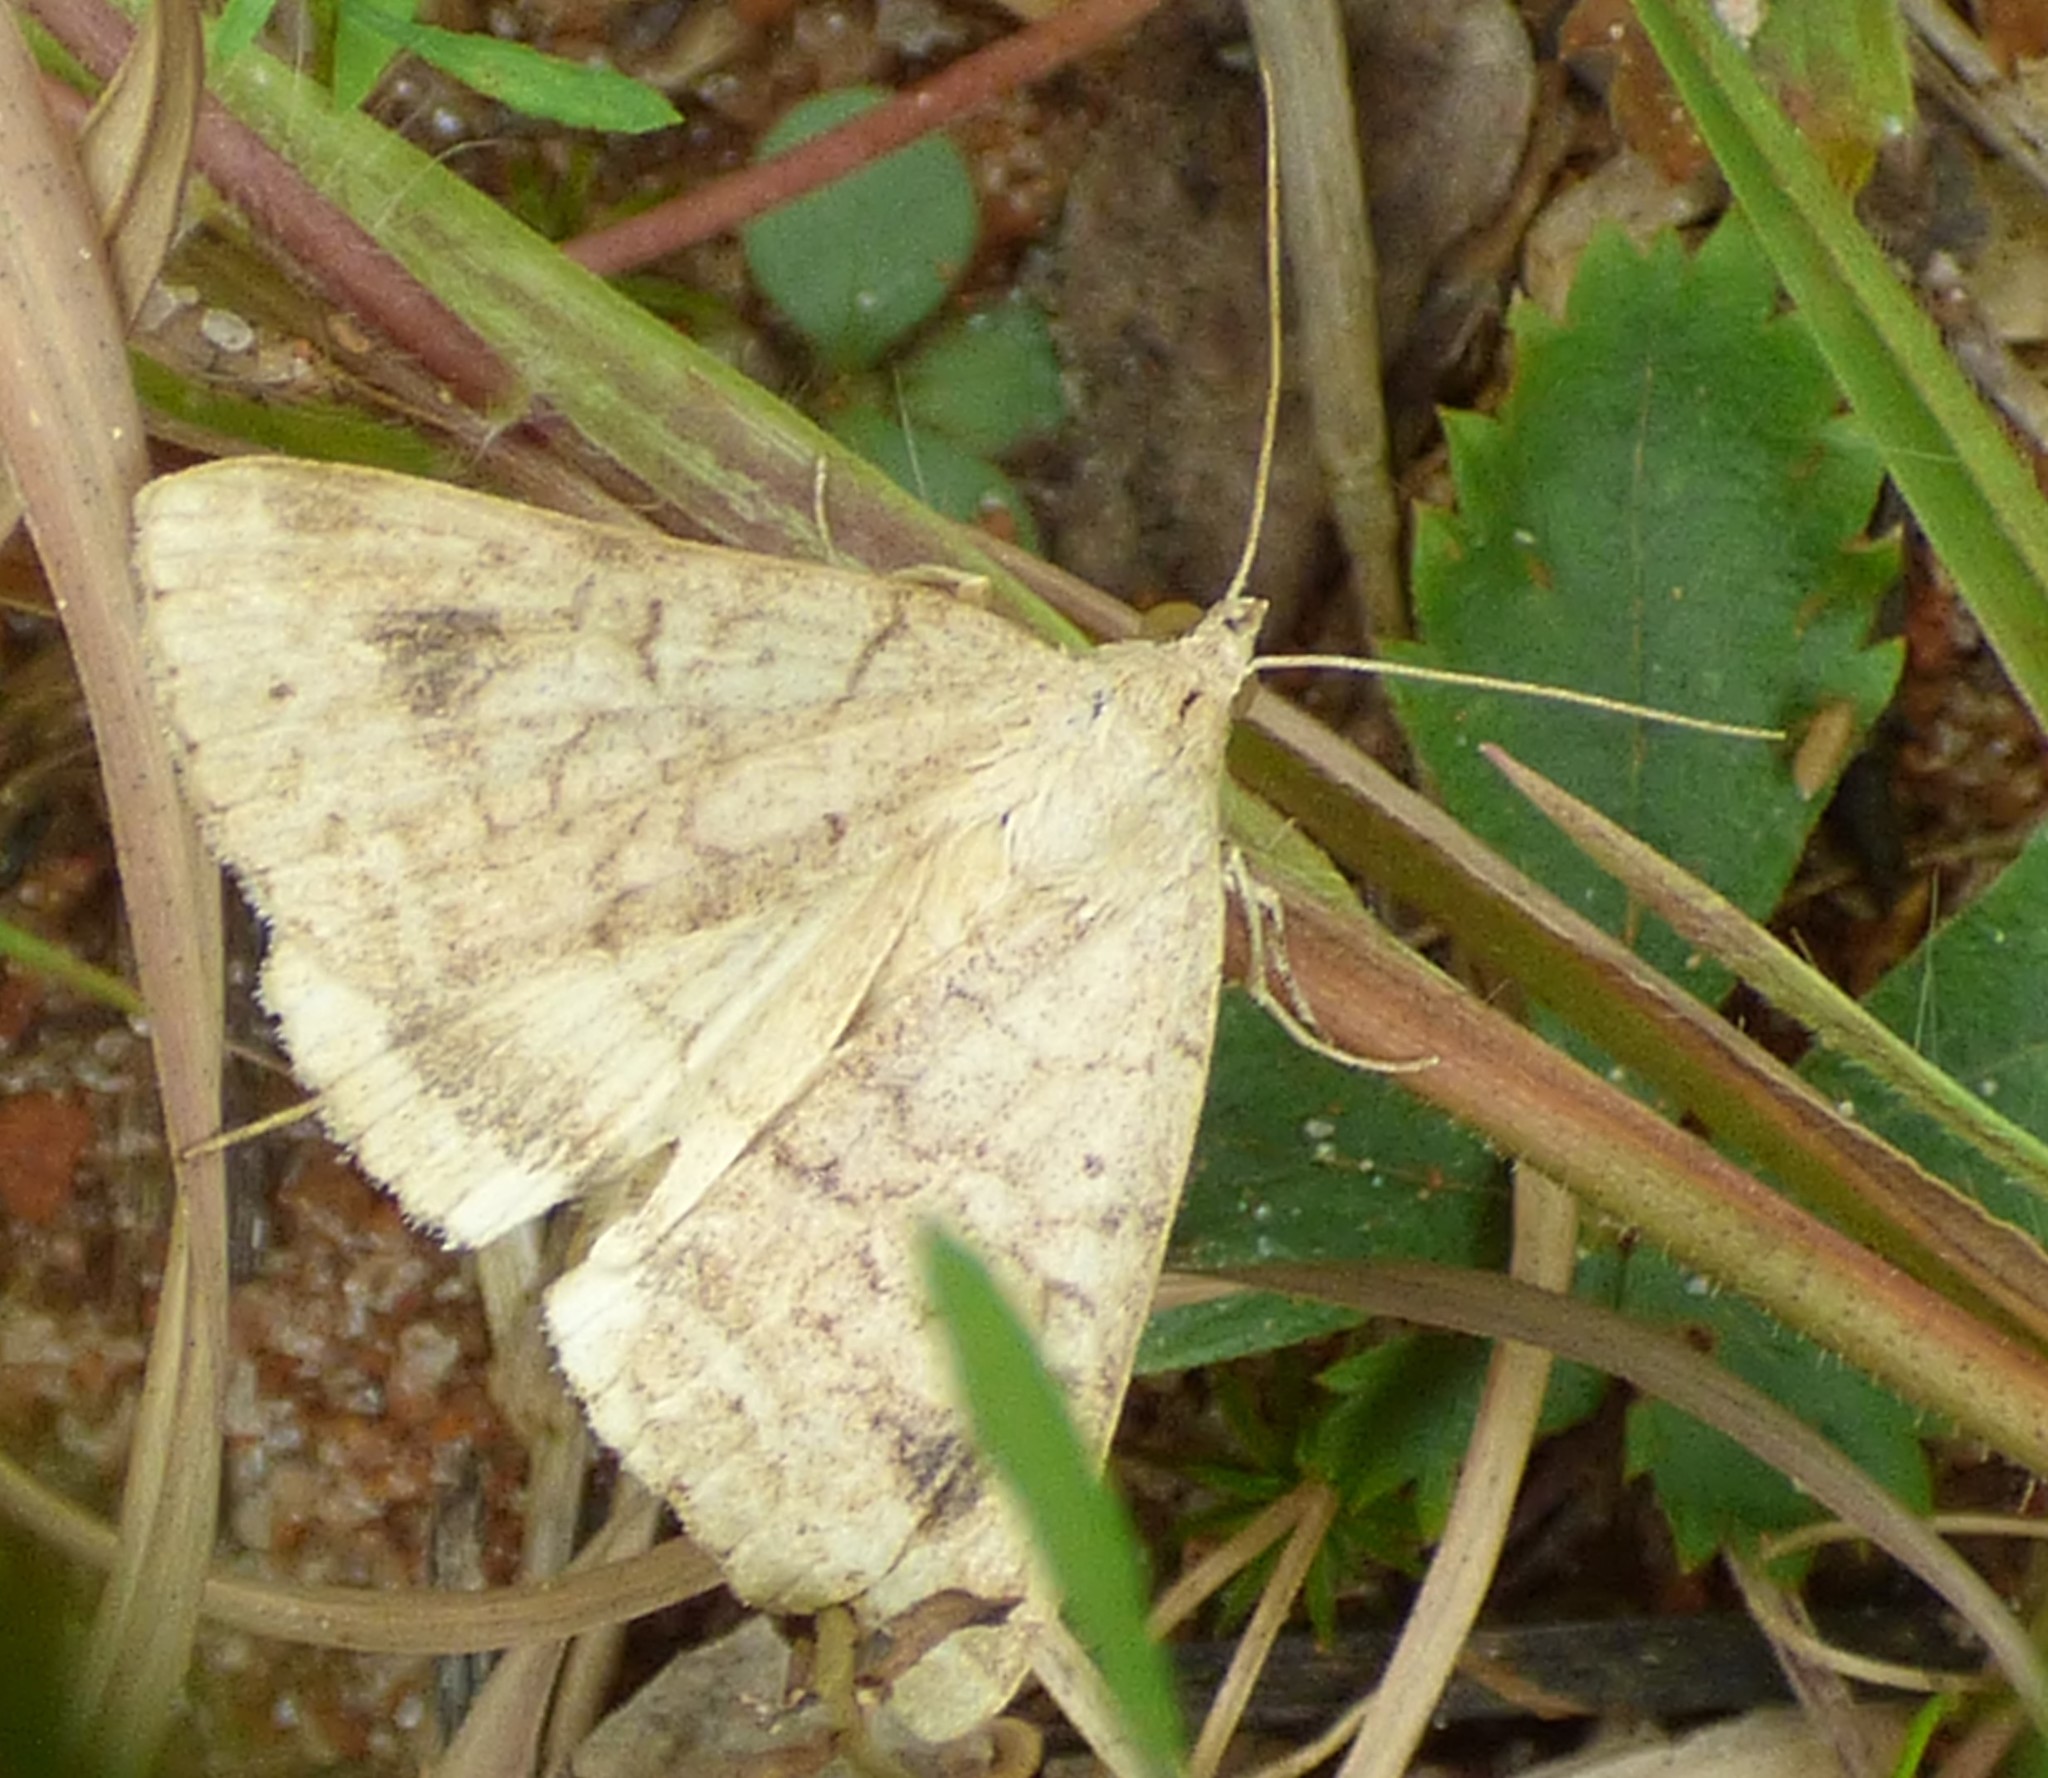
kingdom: Animalia
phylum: Arthropoda
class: Insecta
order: Lepidoptera
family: Erebidae
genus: Caenurgia
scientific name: Caenurgia chloropha
